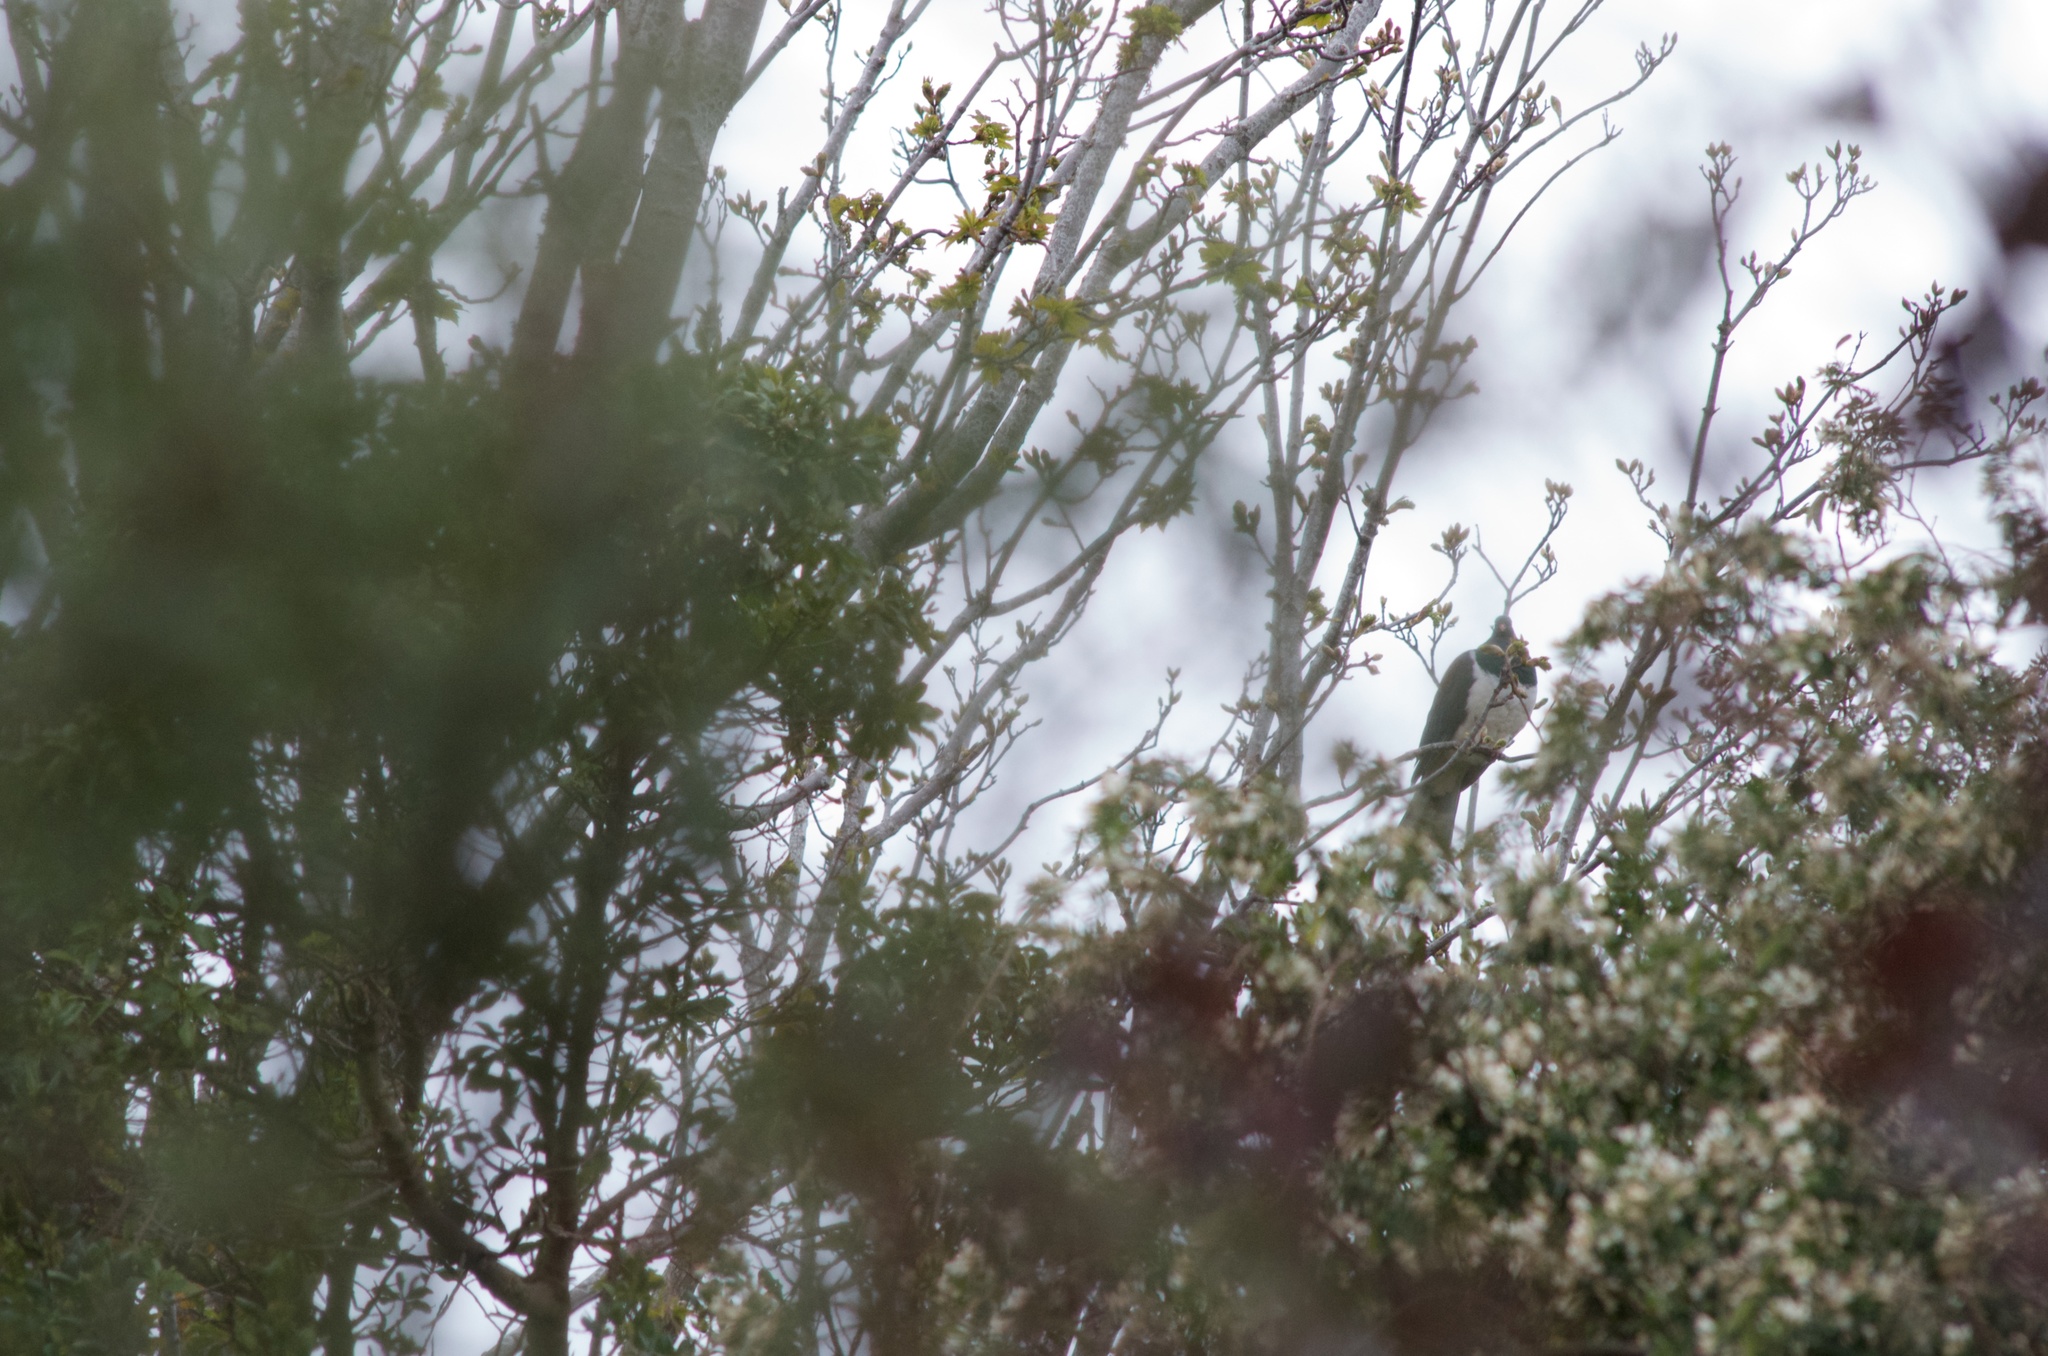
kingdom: Animalia
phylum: Chordata
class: Aves
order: Columbiformes
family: Columbidae
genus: Hemiphaga
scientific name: Hemiphaga novaeseelandiae
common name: New zealand pigeon
